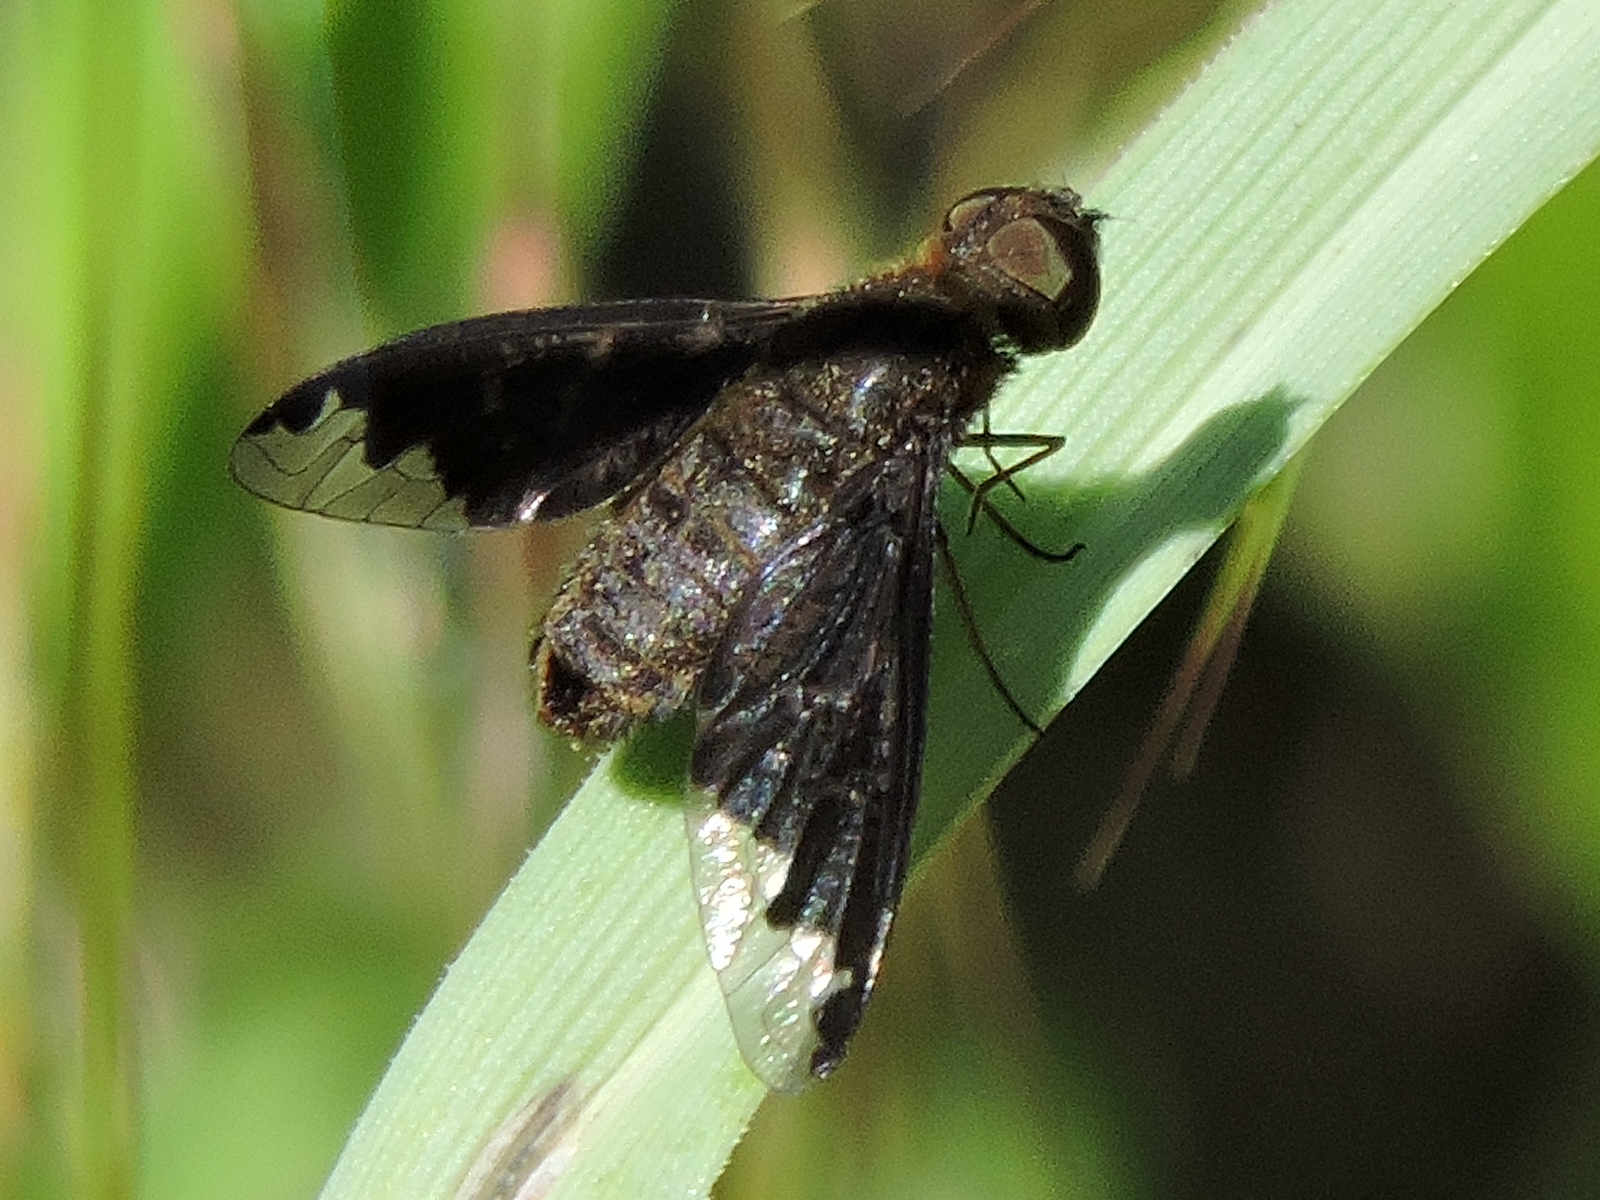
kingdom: Animalia
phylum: Arthropoda
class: Insecta
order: Diptera
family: Bombyliidae
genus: Hemipenthes
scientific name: Hemipenthes sinuosus
